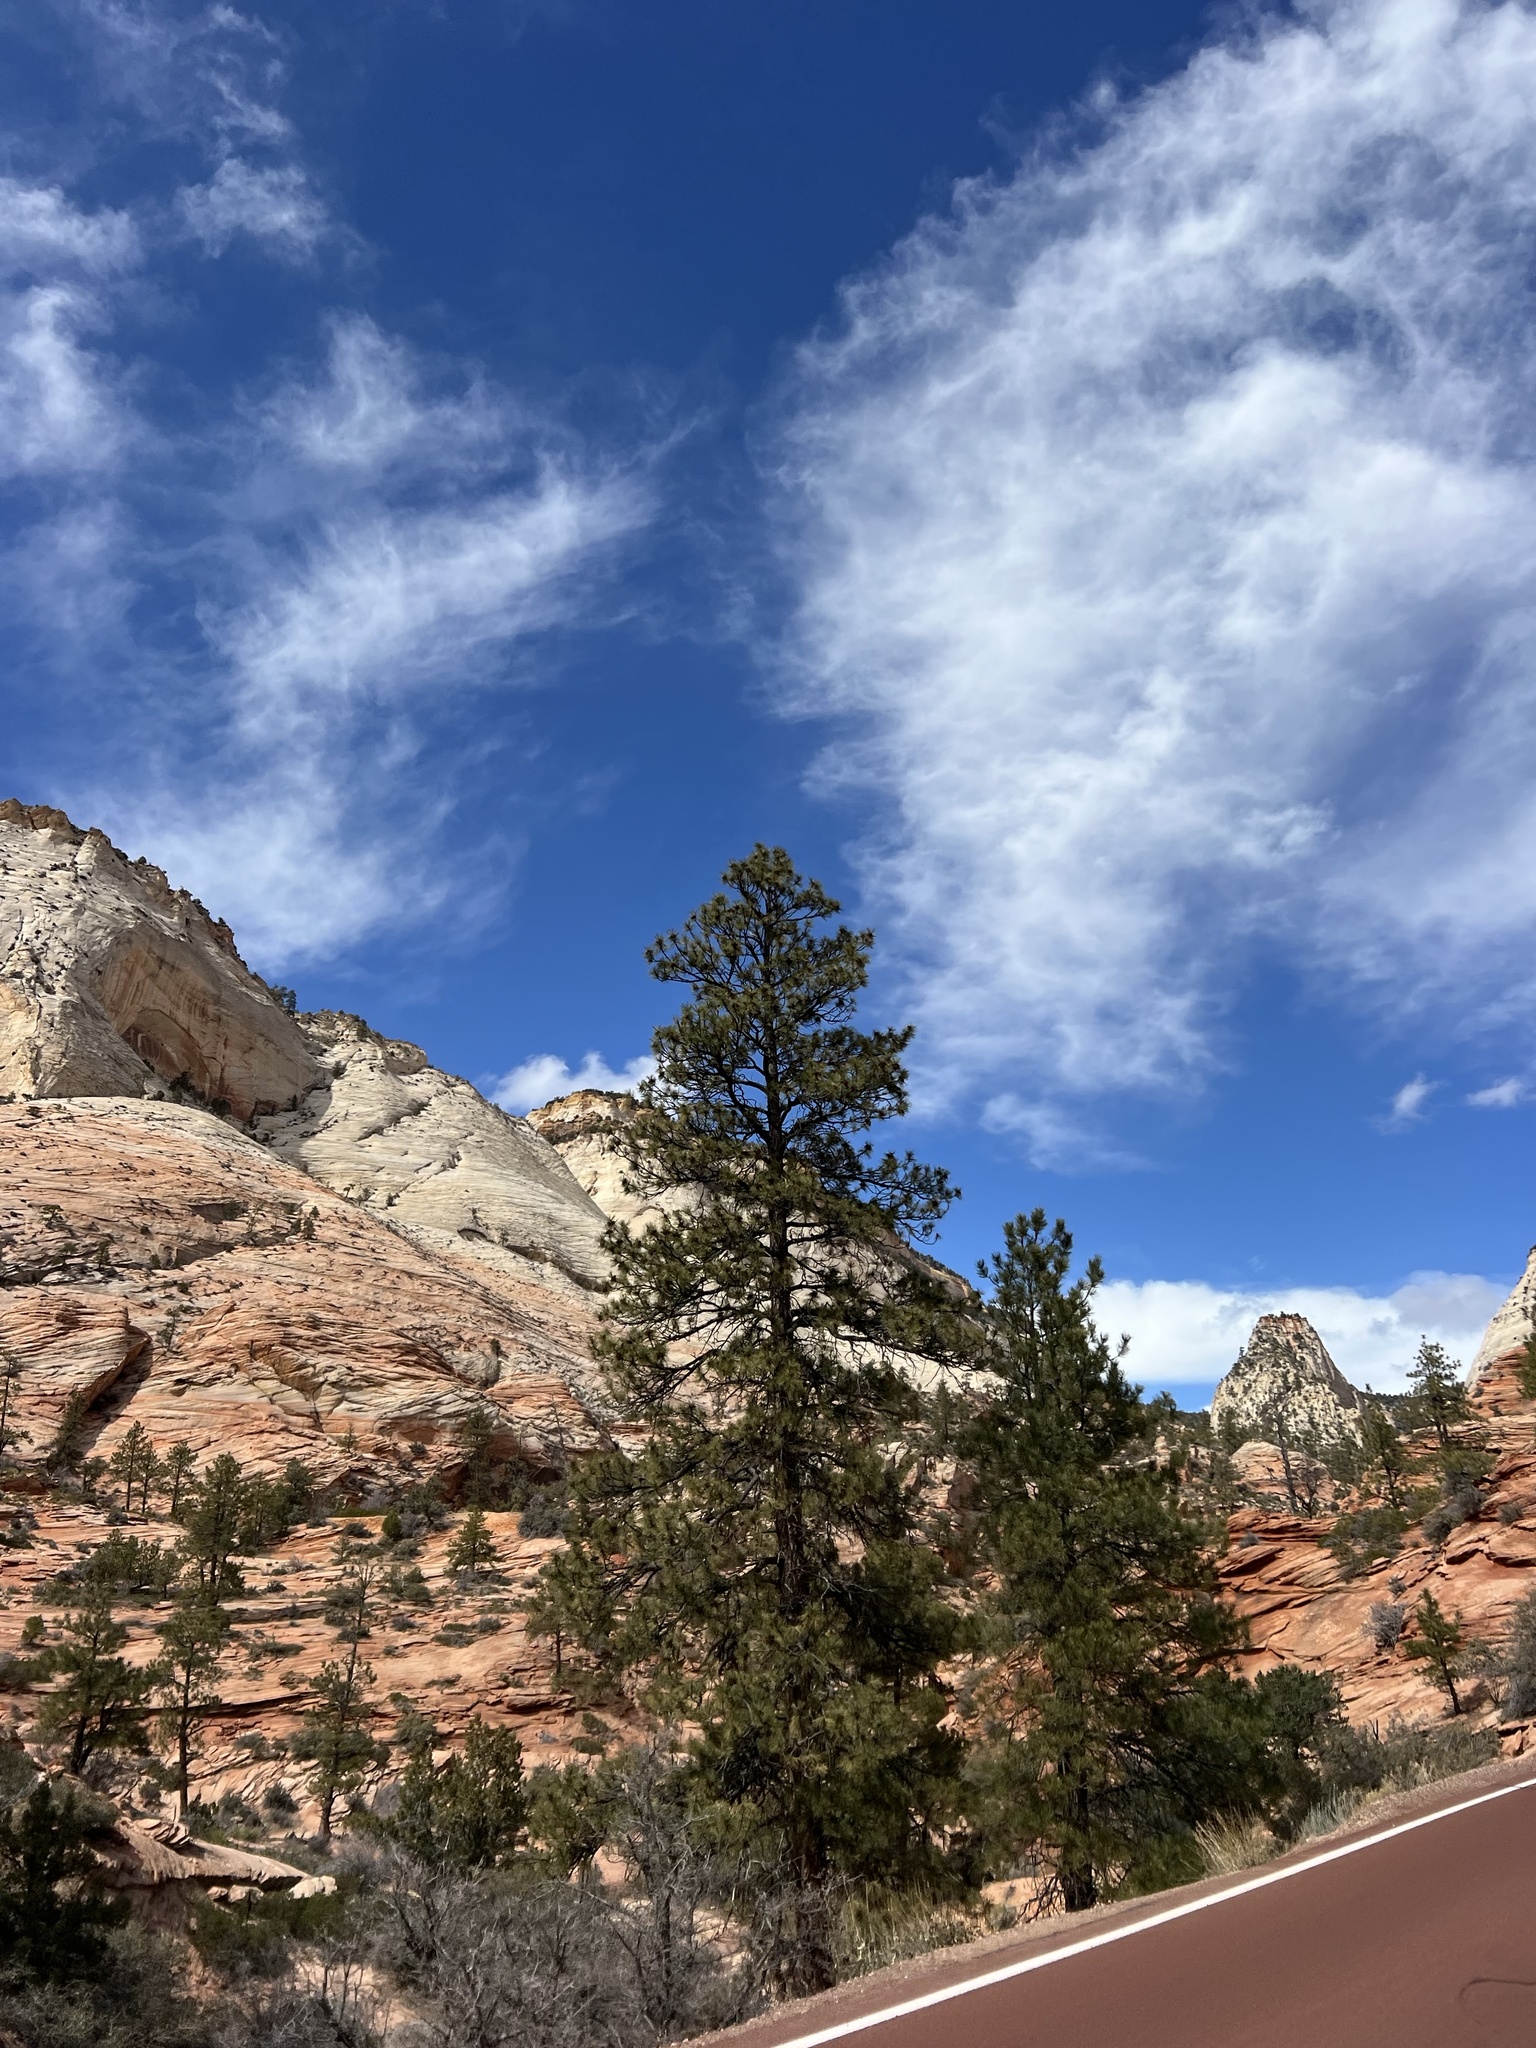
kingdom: Plantae
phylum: Tracheophyta
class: Pinopsida
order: Pinales
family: Pinaceae
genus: Pinus
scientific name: Pinus ponderosa
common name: Western yellow-pine
